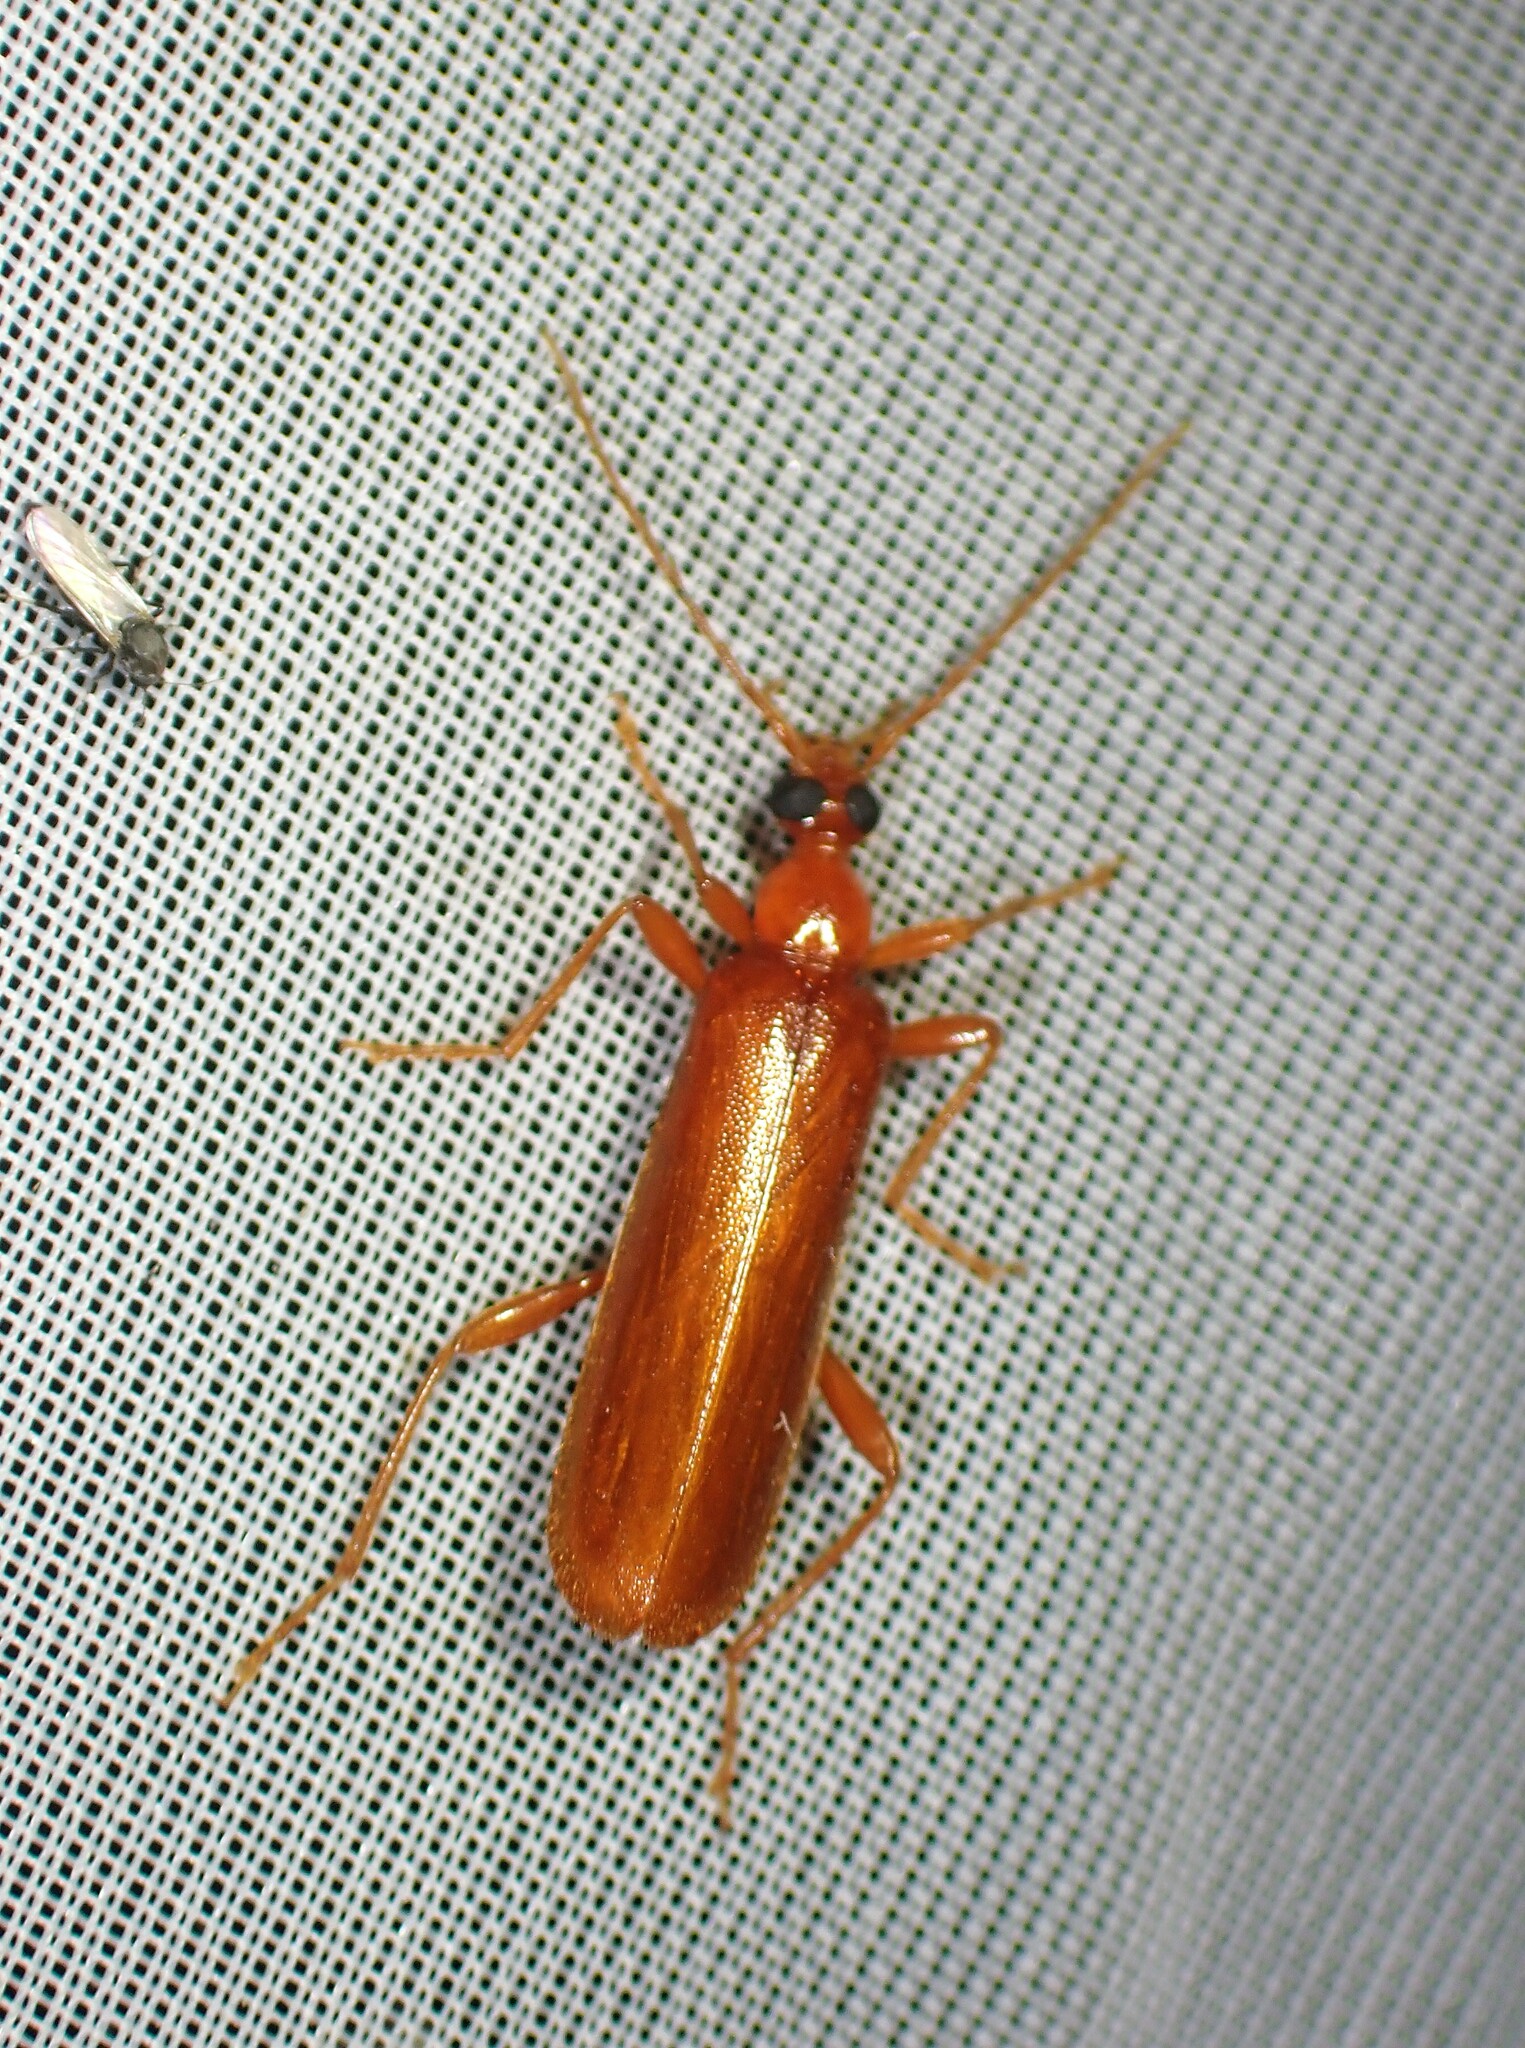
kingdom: Animalia
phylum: Arthropoda
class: Insecta
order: Coleoptera
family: Pyrochroidae
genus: Dendroides
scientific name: Dendroides concolor
